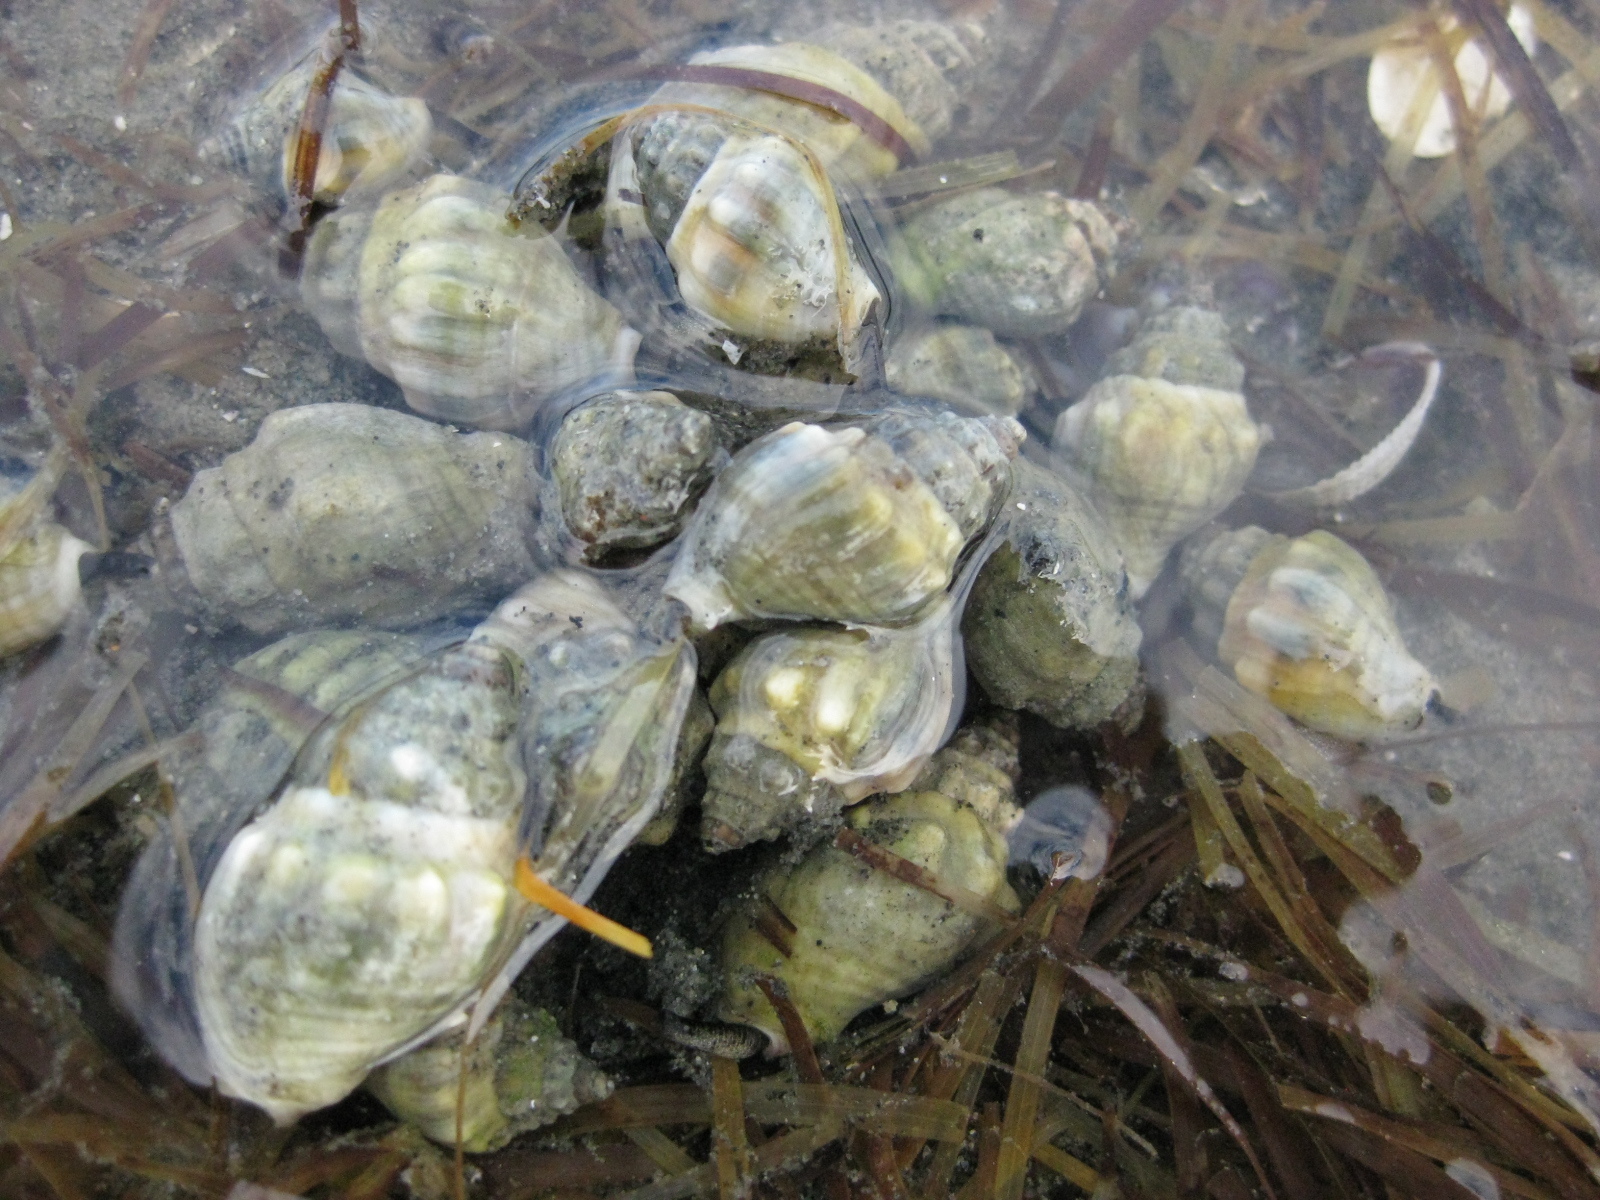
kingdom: Animalia
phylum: Mollusca
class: Gastropoda
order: Neogastropoda
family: Cominellidae
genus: Cominella
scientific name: Cominella glandiformis
